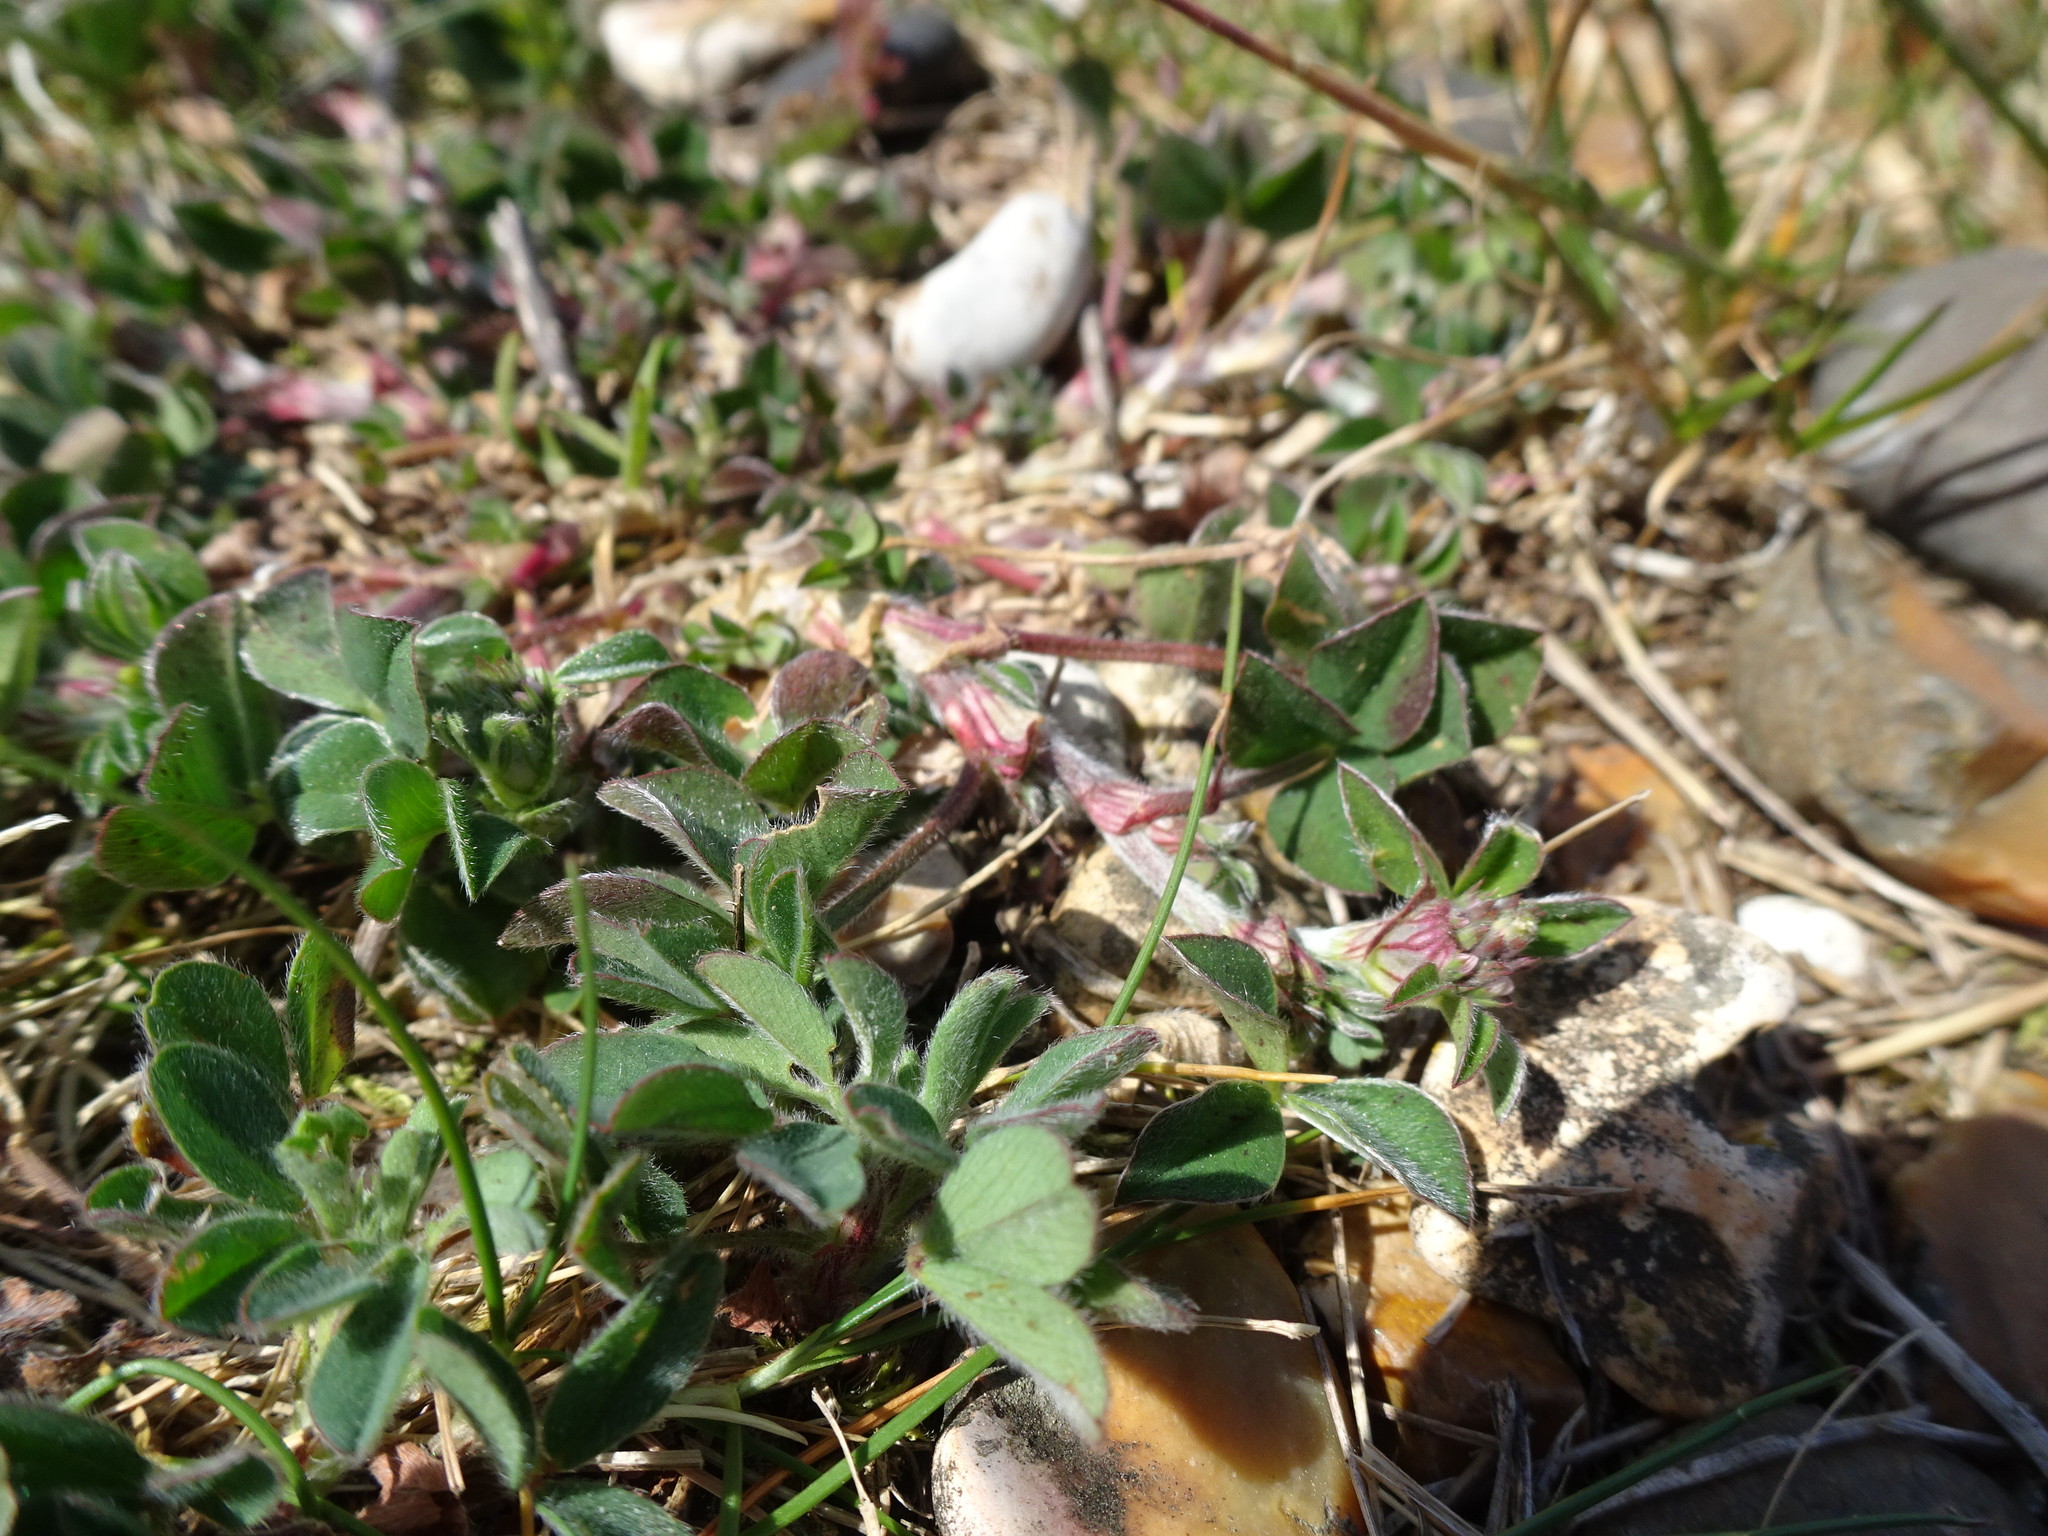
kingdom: Plantae
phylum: Tracheophyta
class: Magnoliopsida
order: Fabales
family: Fabaceae
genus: Trifolium
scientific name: Trifolium striatum
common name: Knotted clover
